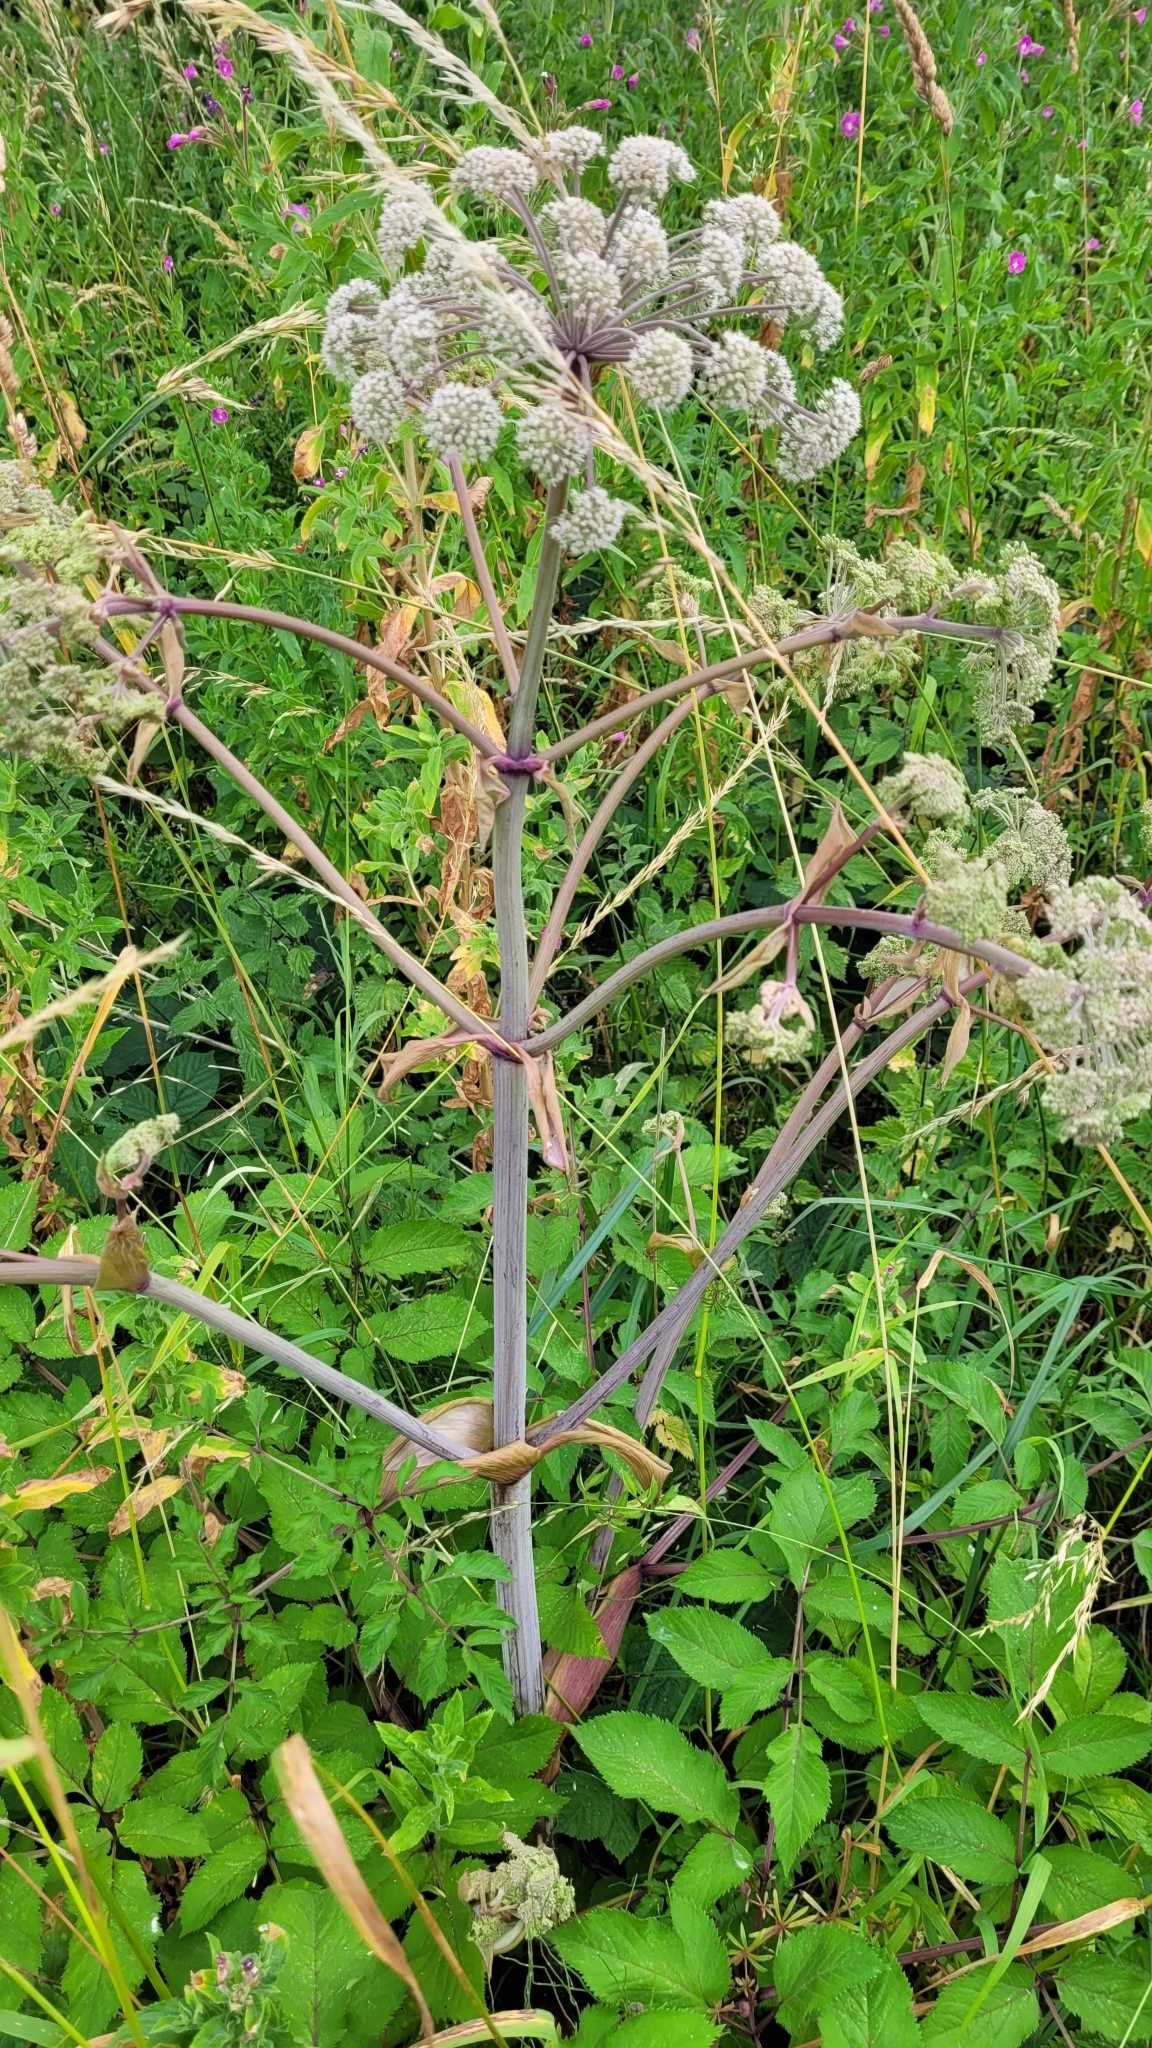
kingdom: Plantae
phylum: Tracheophyta
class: Magnoliopsida
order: Apiales
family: Apiaceae
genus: Angelica
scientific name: Angelica sylvestris
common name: Wild angelica
